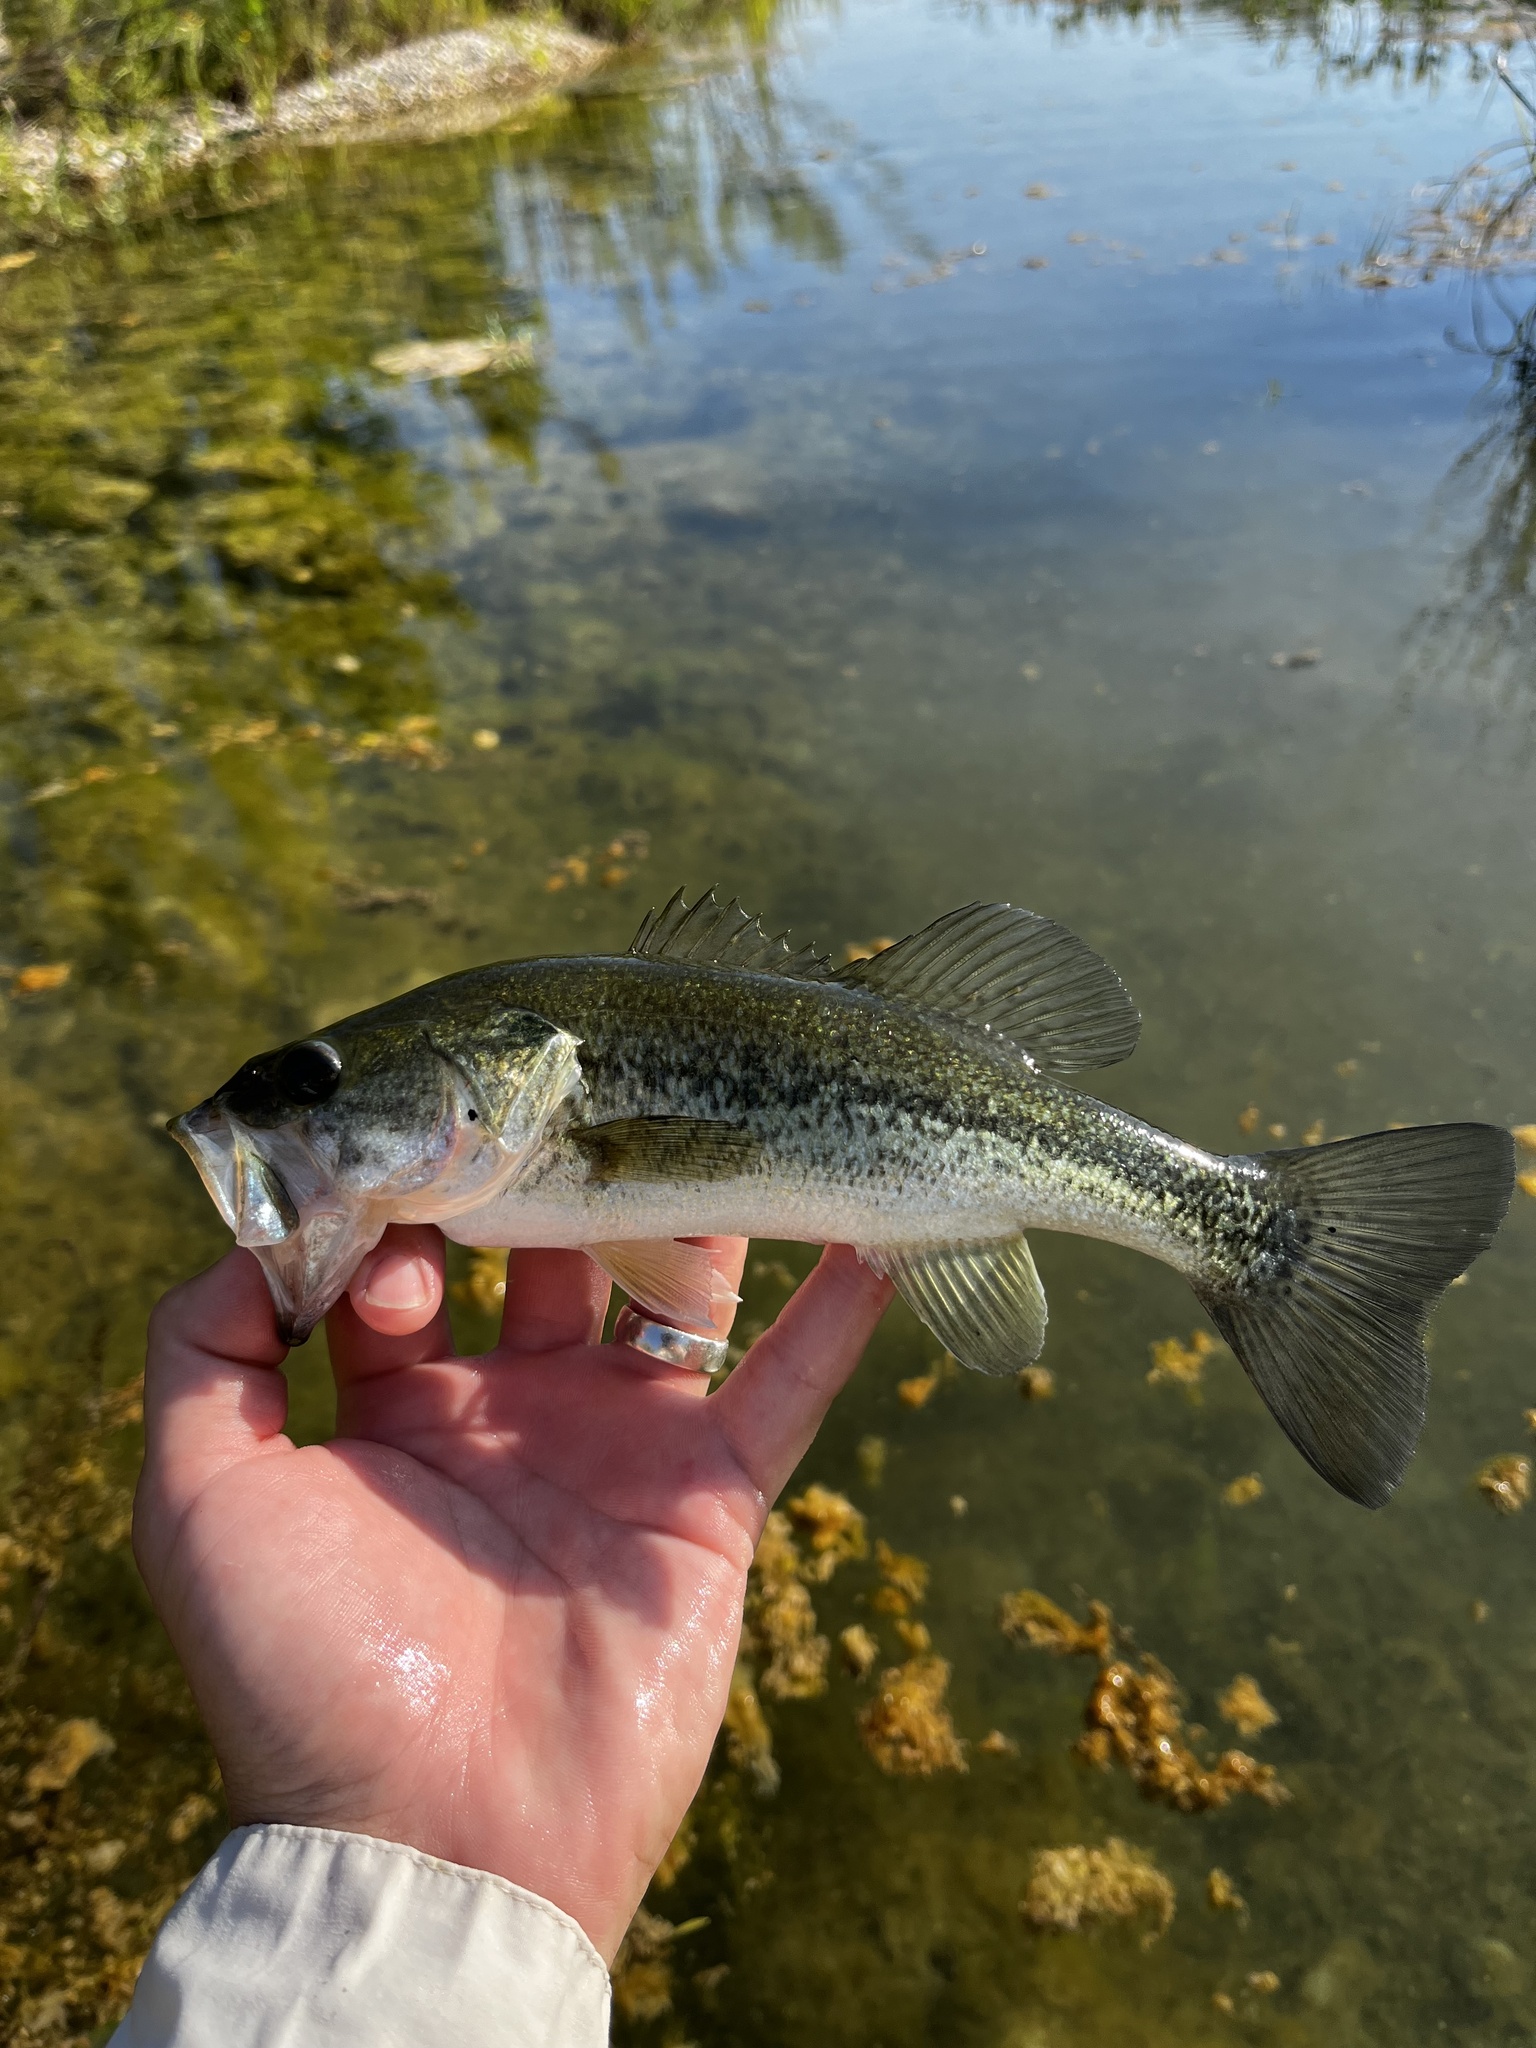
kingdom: Animalia
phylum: Chordata
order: Perciformes
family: Centrarchidae
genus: Micropterus
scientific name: Micropterus
